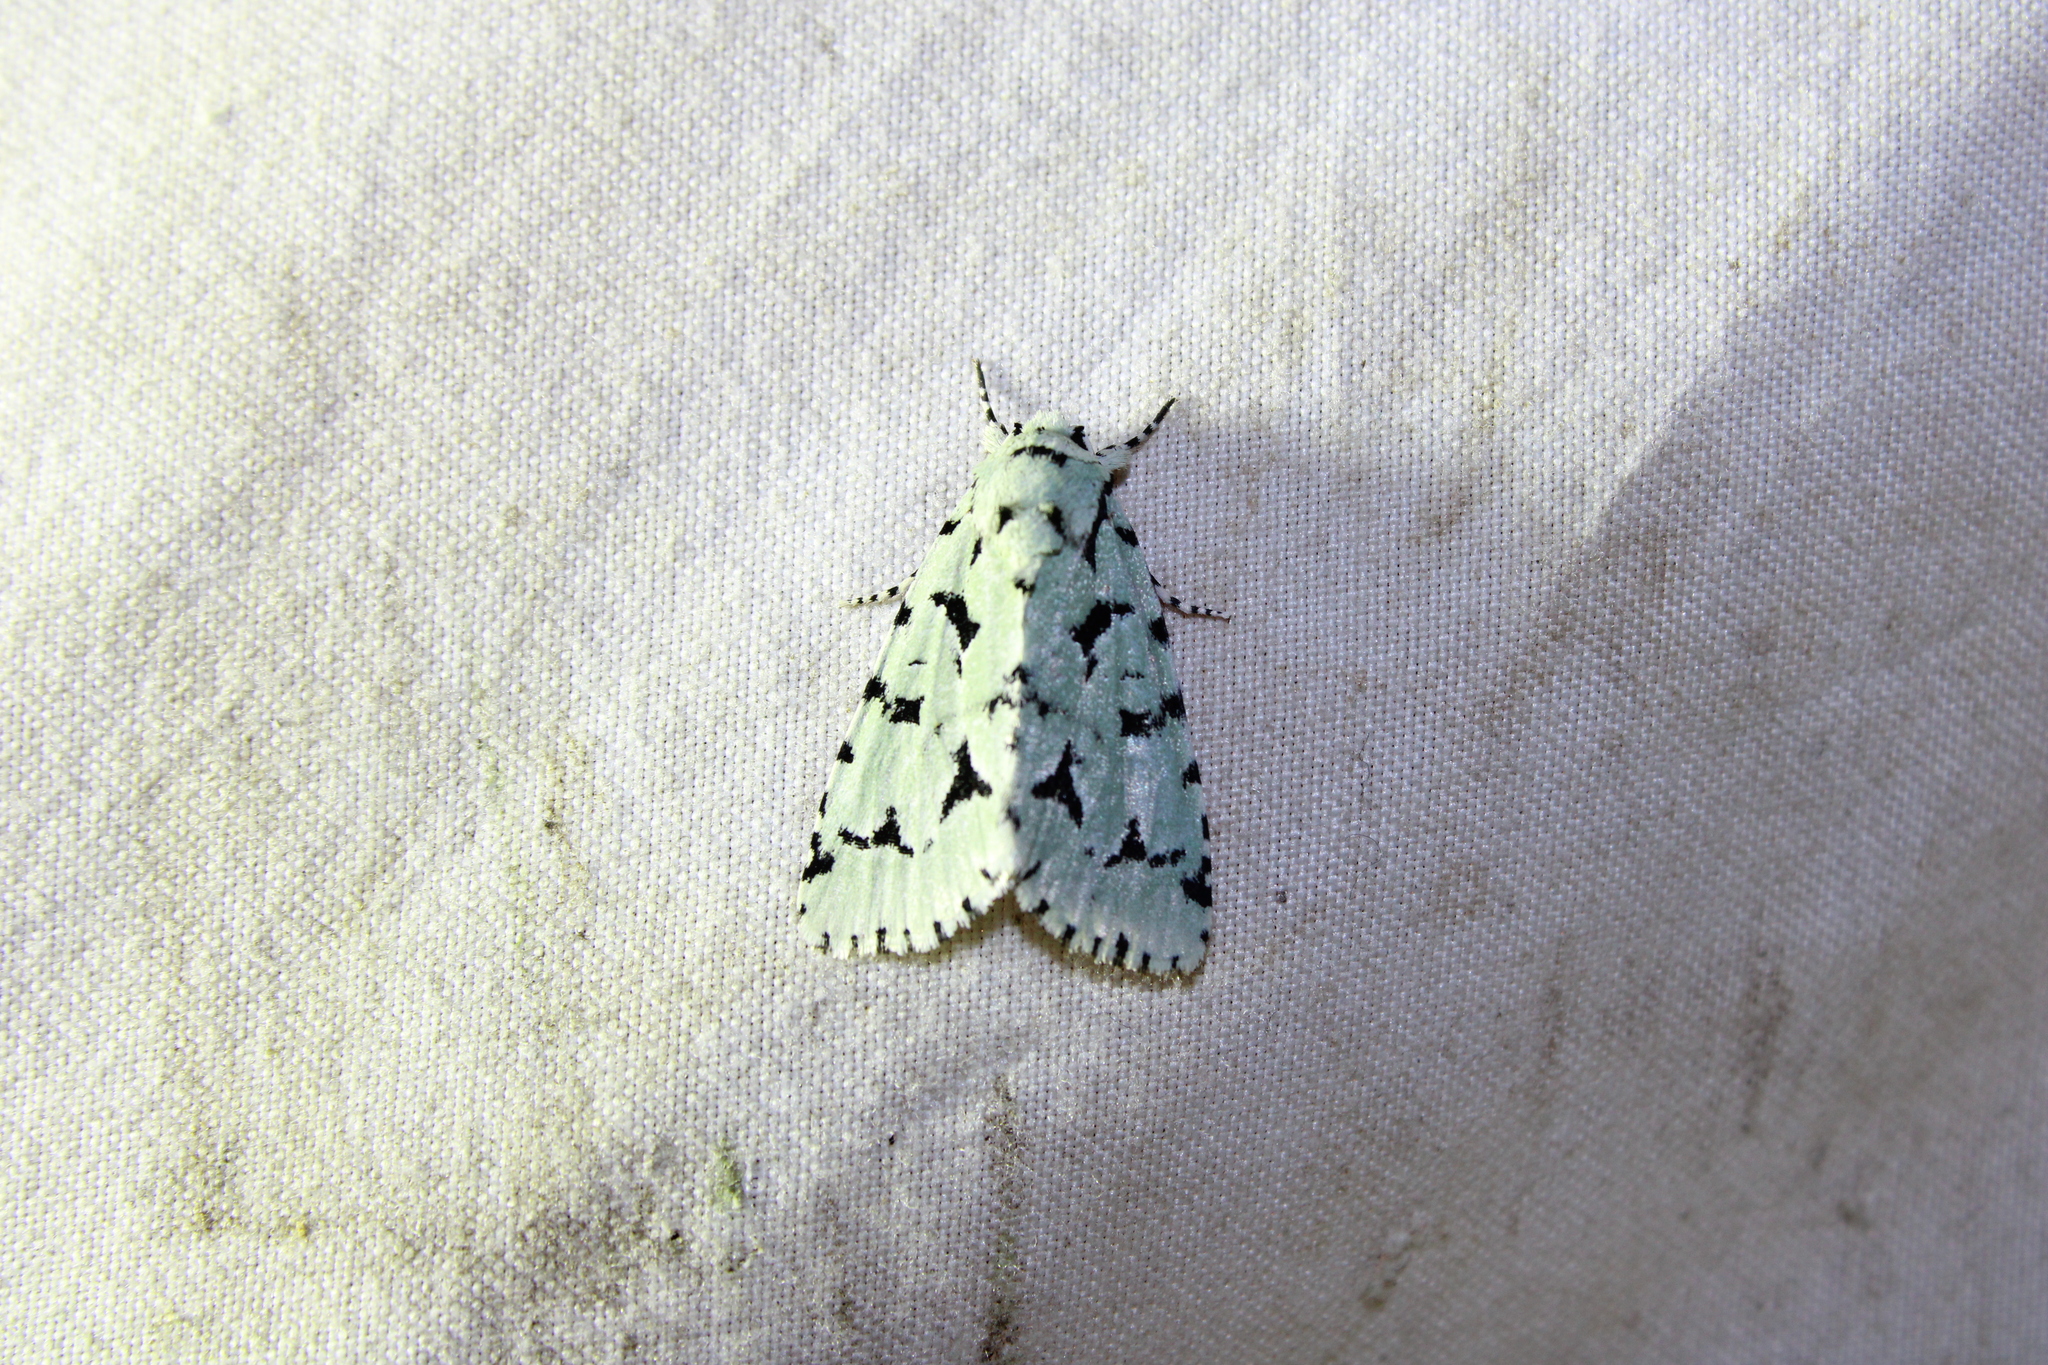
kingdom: Animalia
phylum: Arthropoda
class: Insecta
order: Lepidoptera
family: Noctuidae
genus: Acronicta
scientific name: Acronicta fallax
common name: Green marvel
